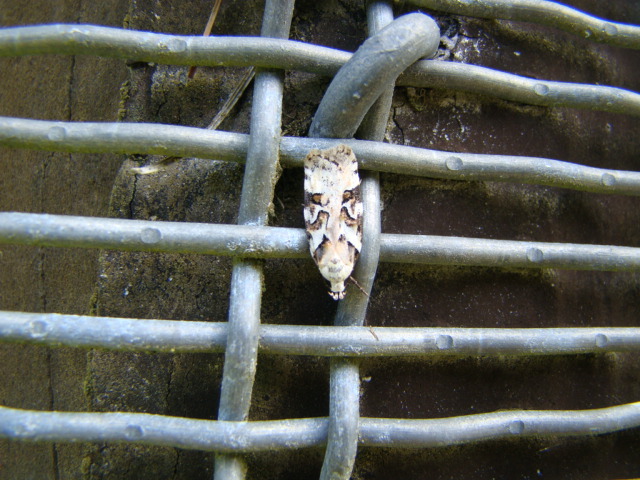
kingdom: Animalia
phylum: Arthropoda
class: Insecta
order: Lepidoptera
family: Oecophoridae
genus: Izatha
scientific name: Izatha epiphanes
